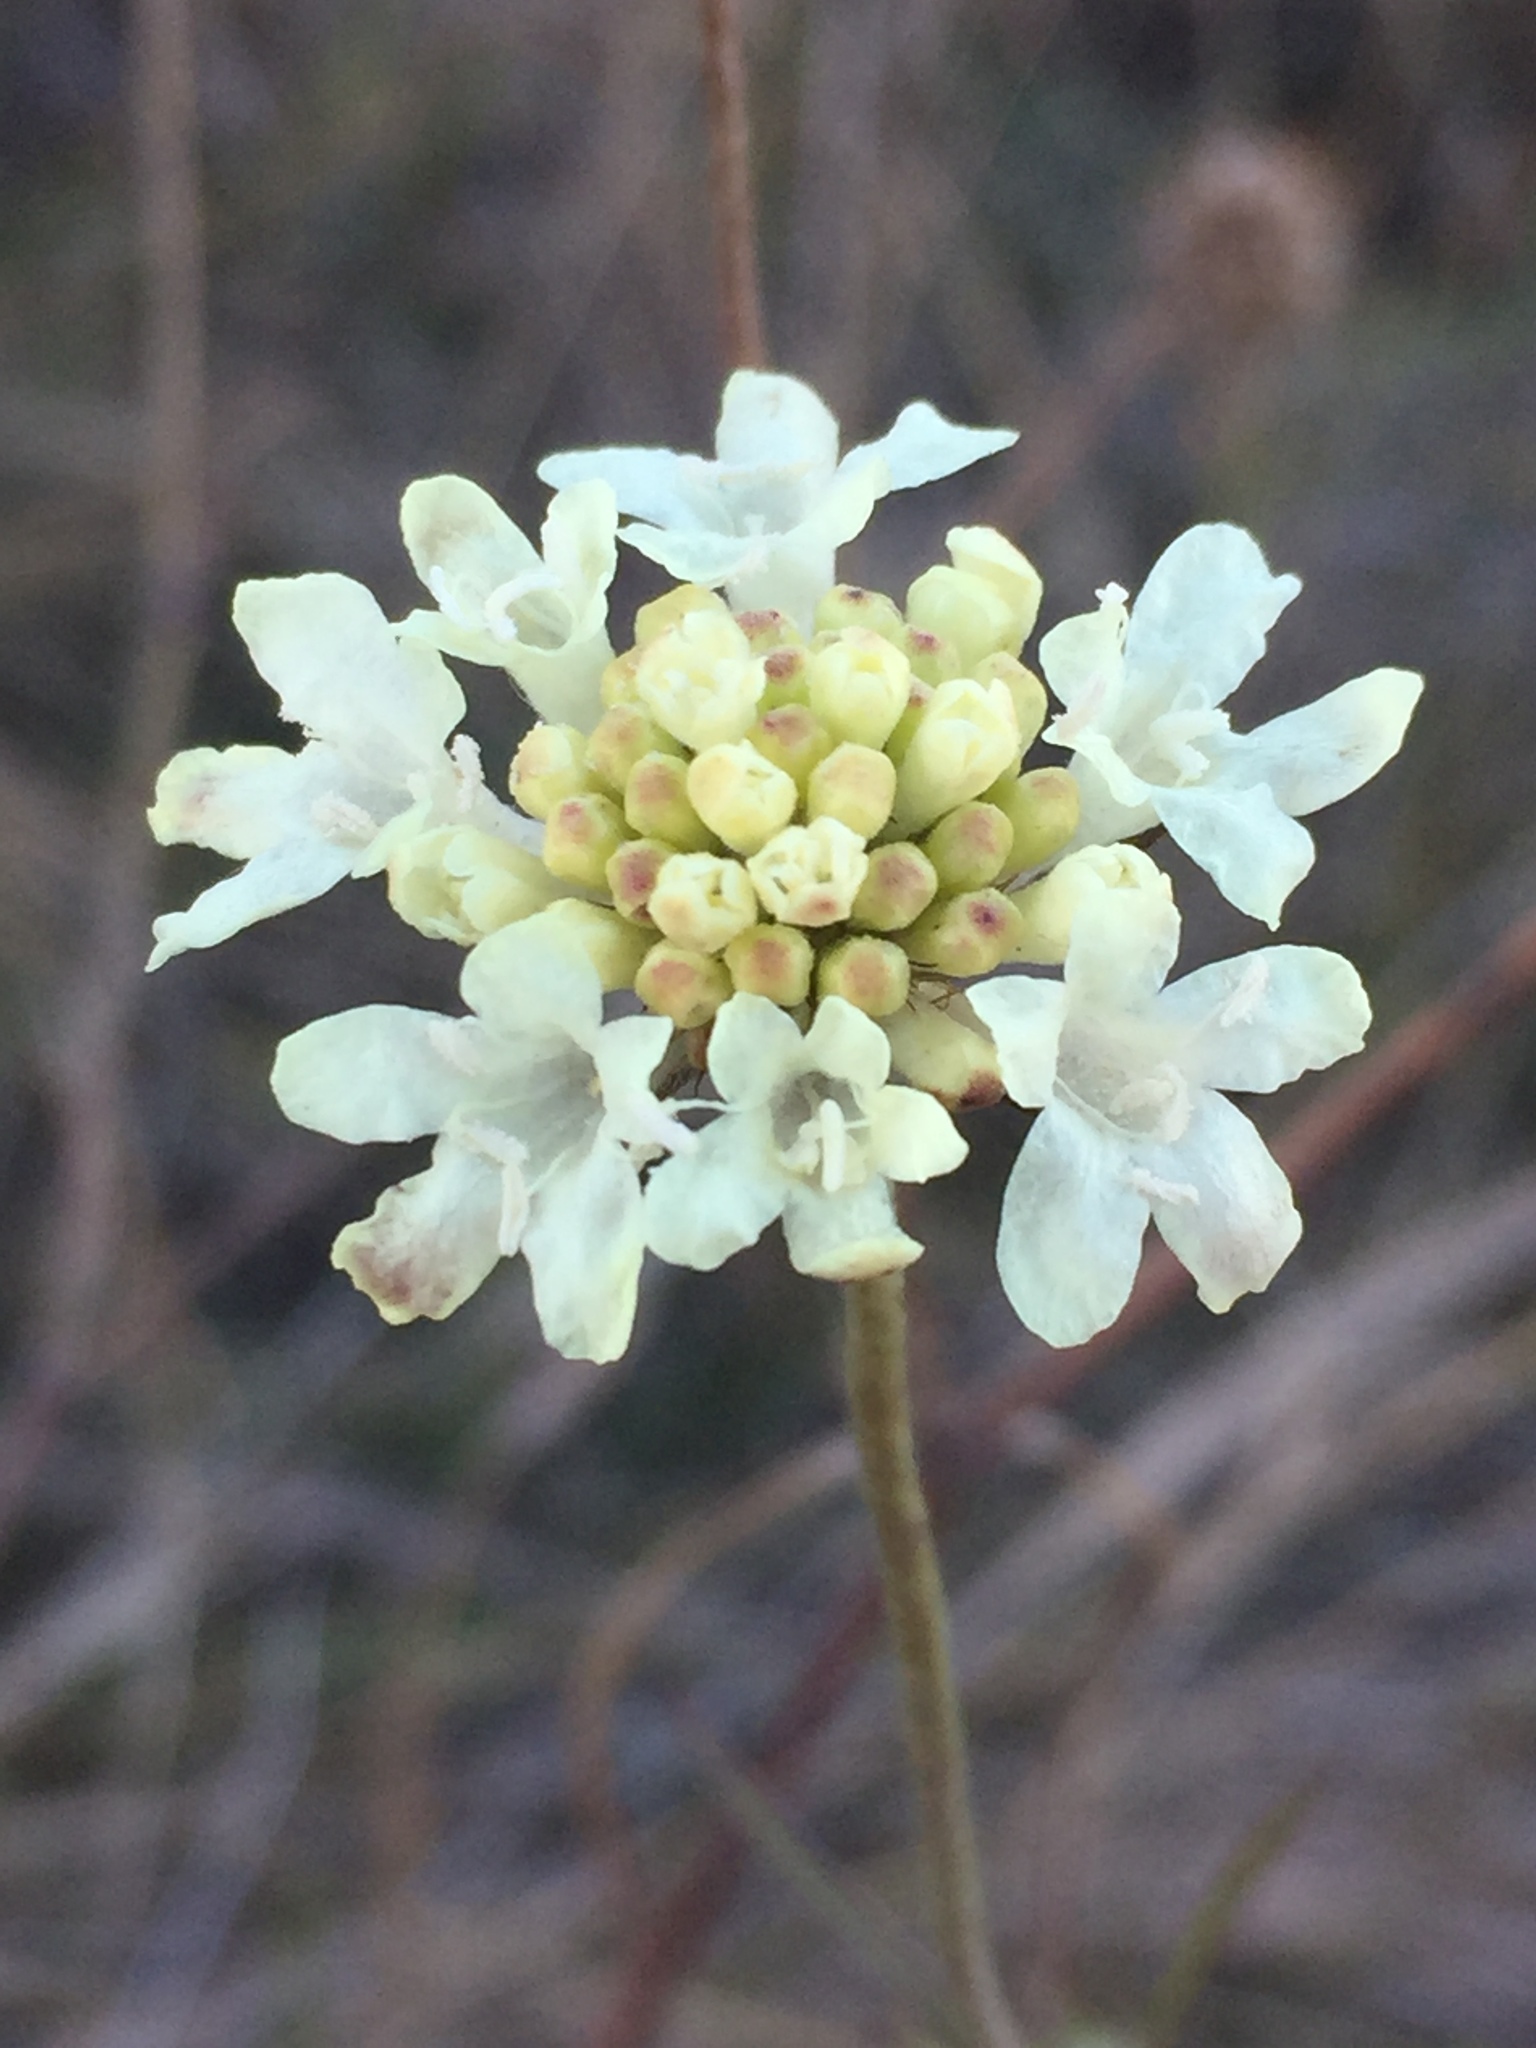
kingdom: Plantae
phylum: Tracheophyta
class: Magnoliopsida
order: Dipsacales
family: Caprifoliaceae
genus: Scabiosa
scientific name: Scabiosa ochroleuca
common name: Cream pincushions
